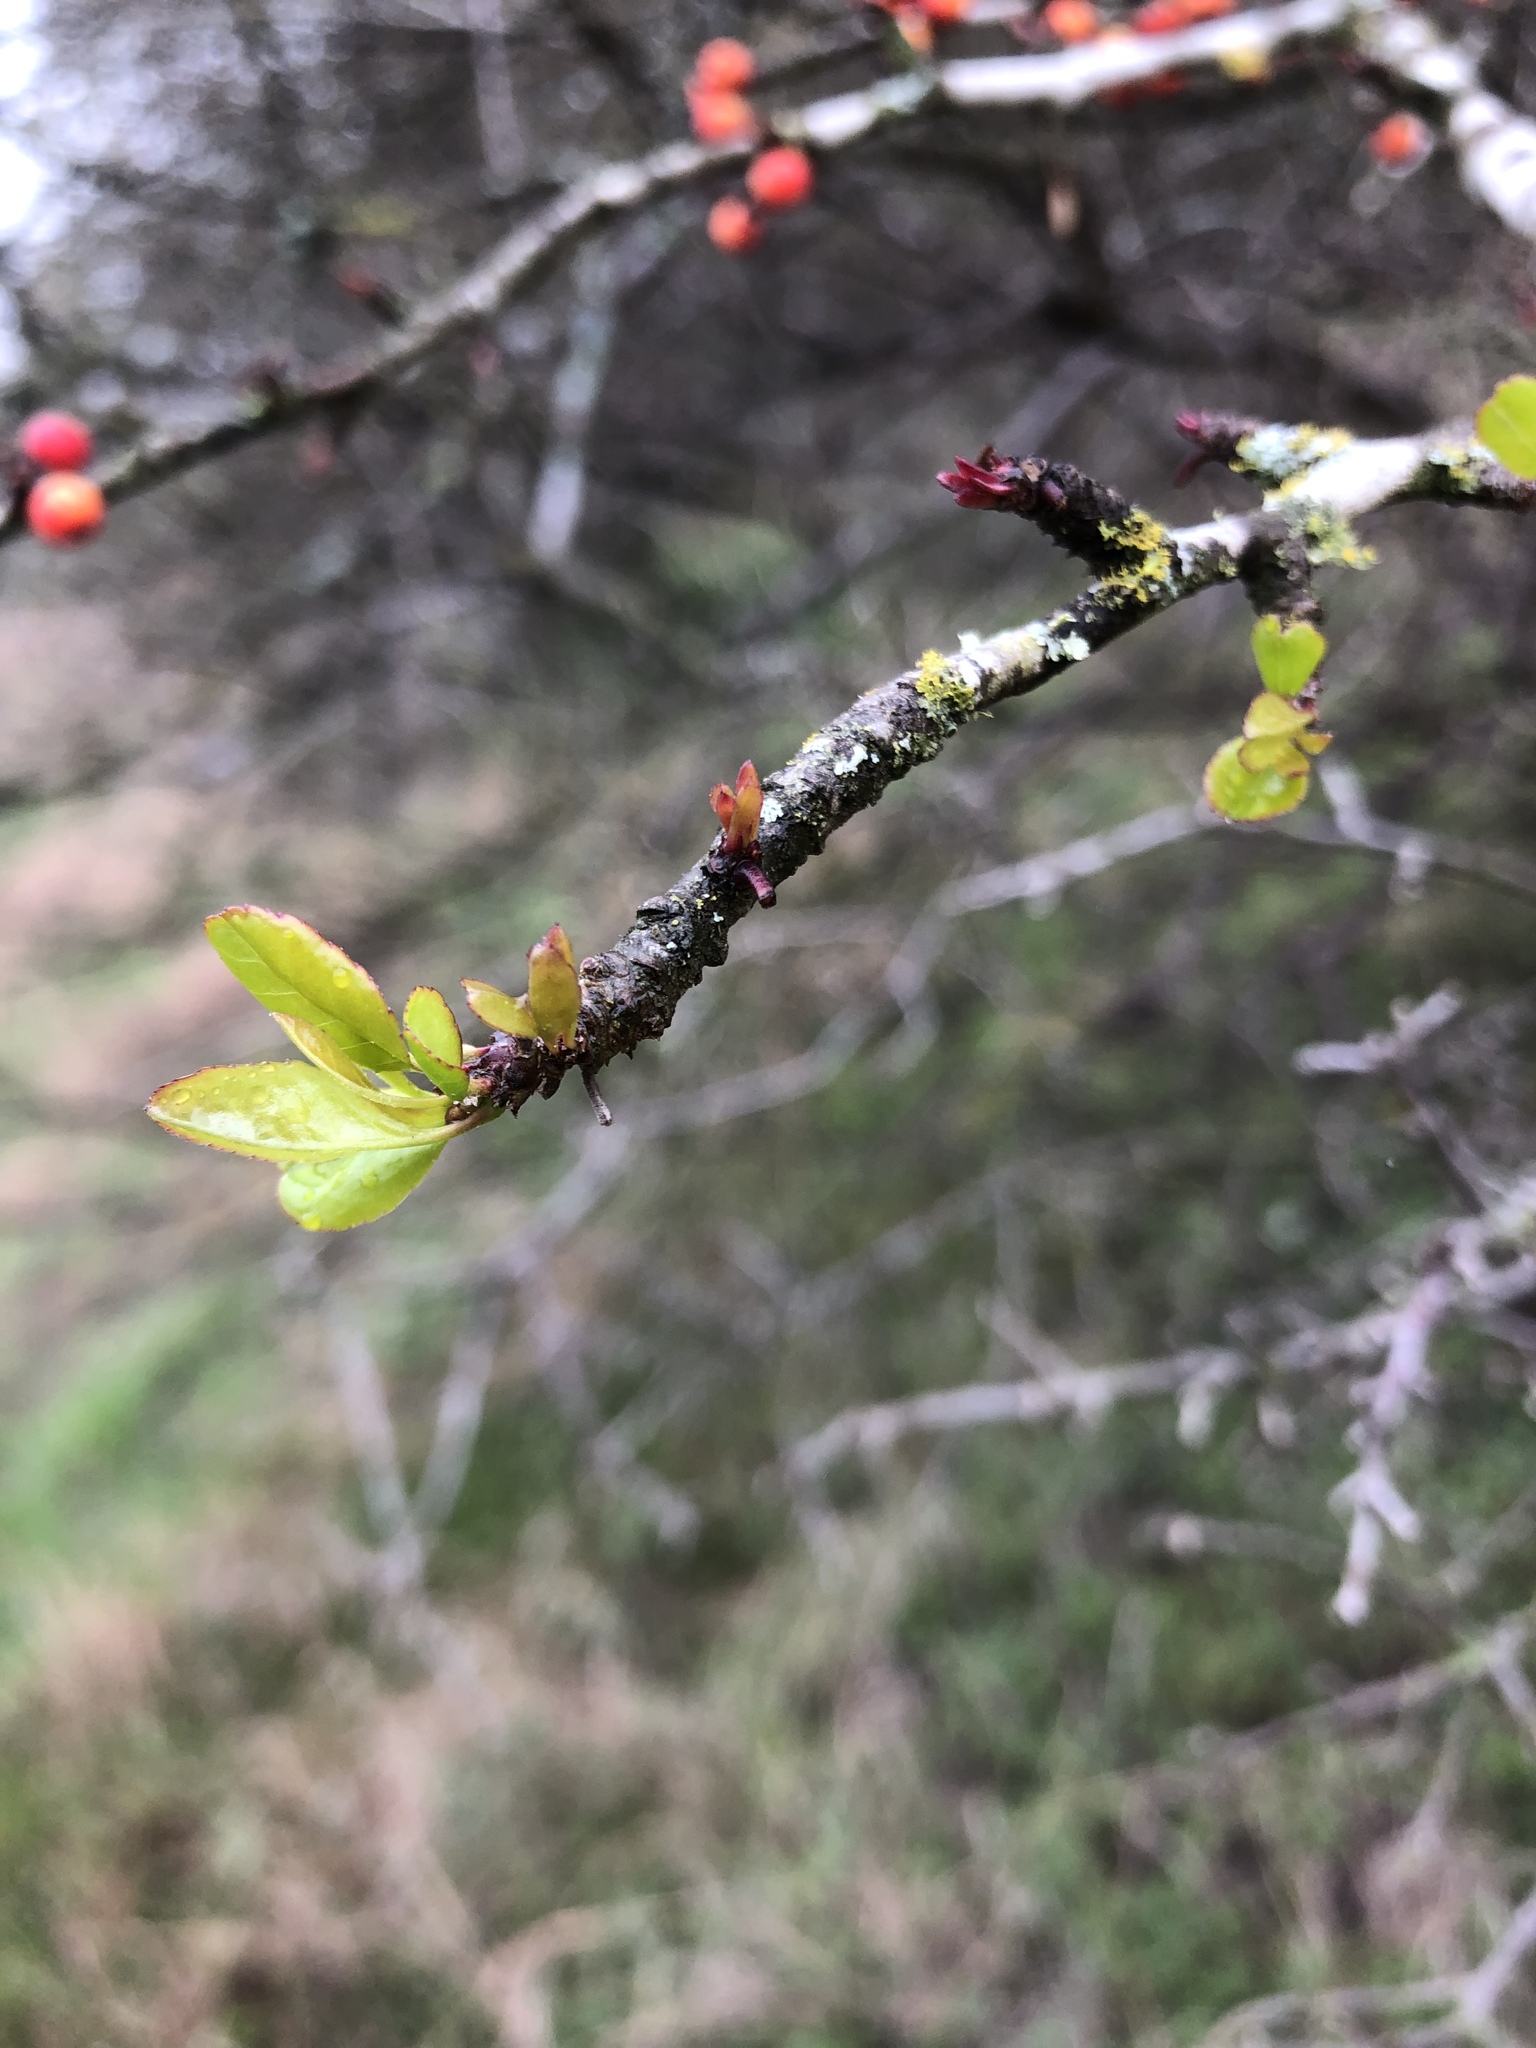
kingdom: Plantae
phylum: Tracheophyta
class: Magnoliopsida
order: Aquifoliales
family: Aquifoliaceae
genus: Ilex
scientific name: Ilex decidua
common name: Possum-haw
